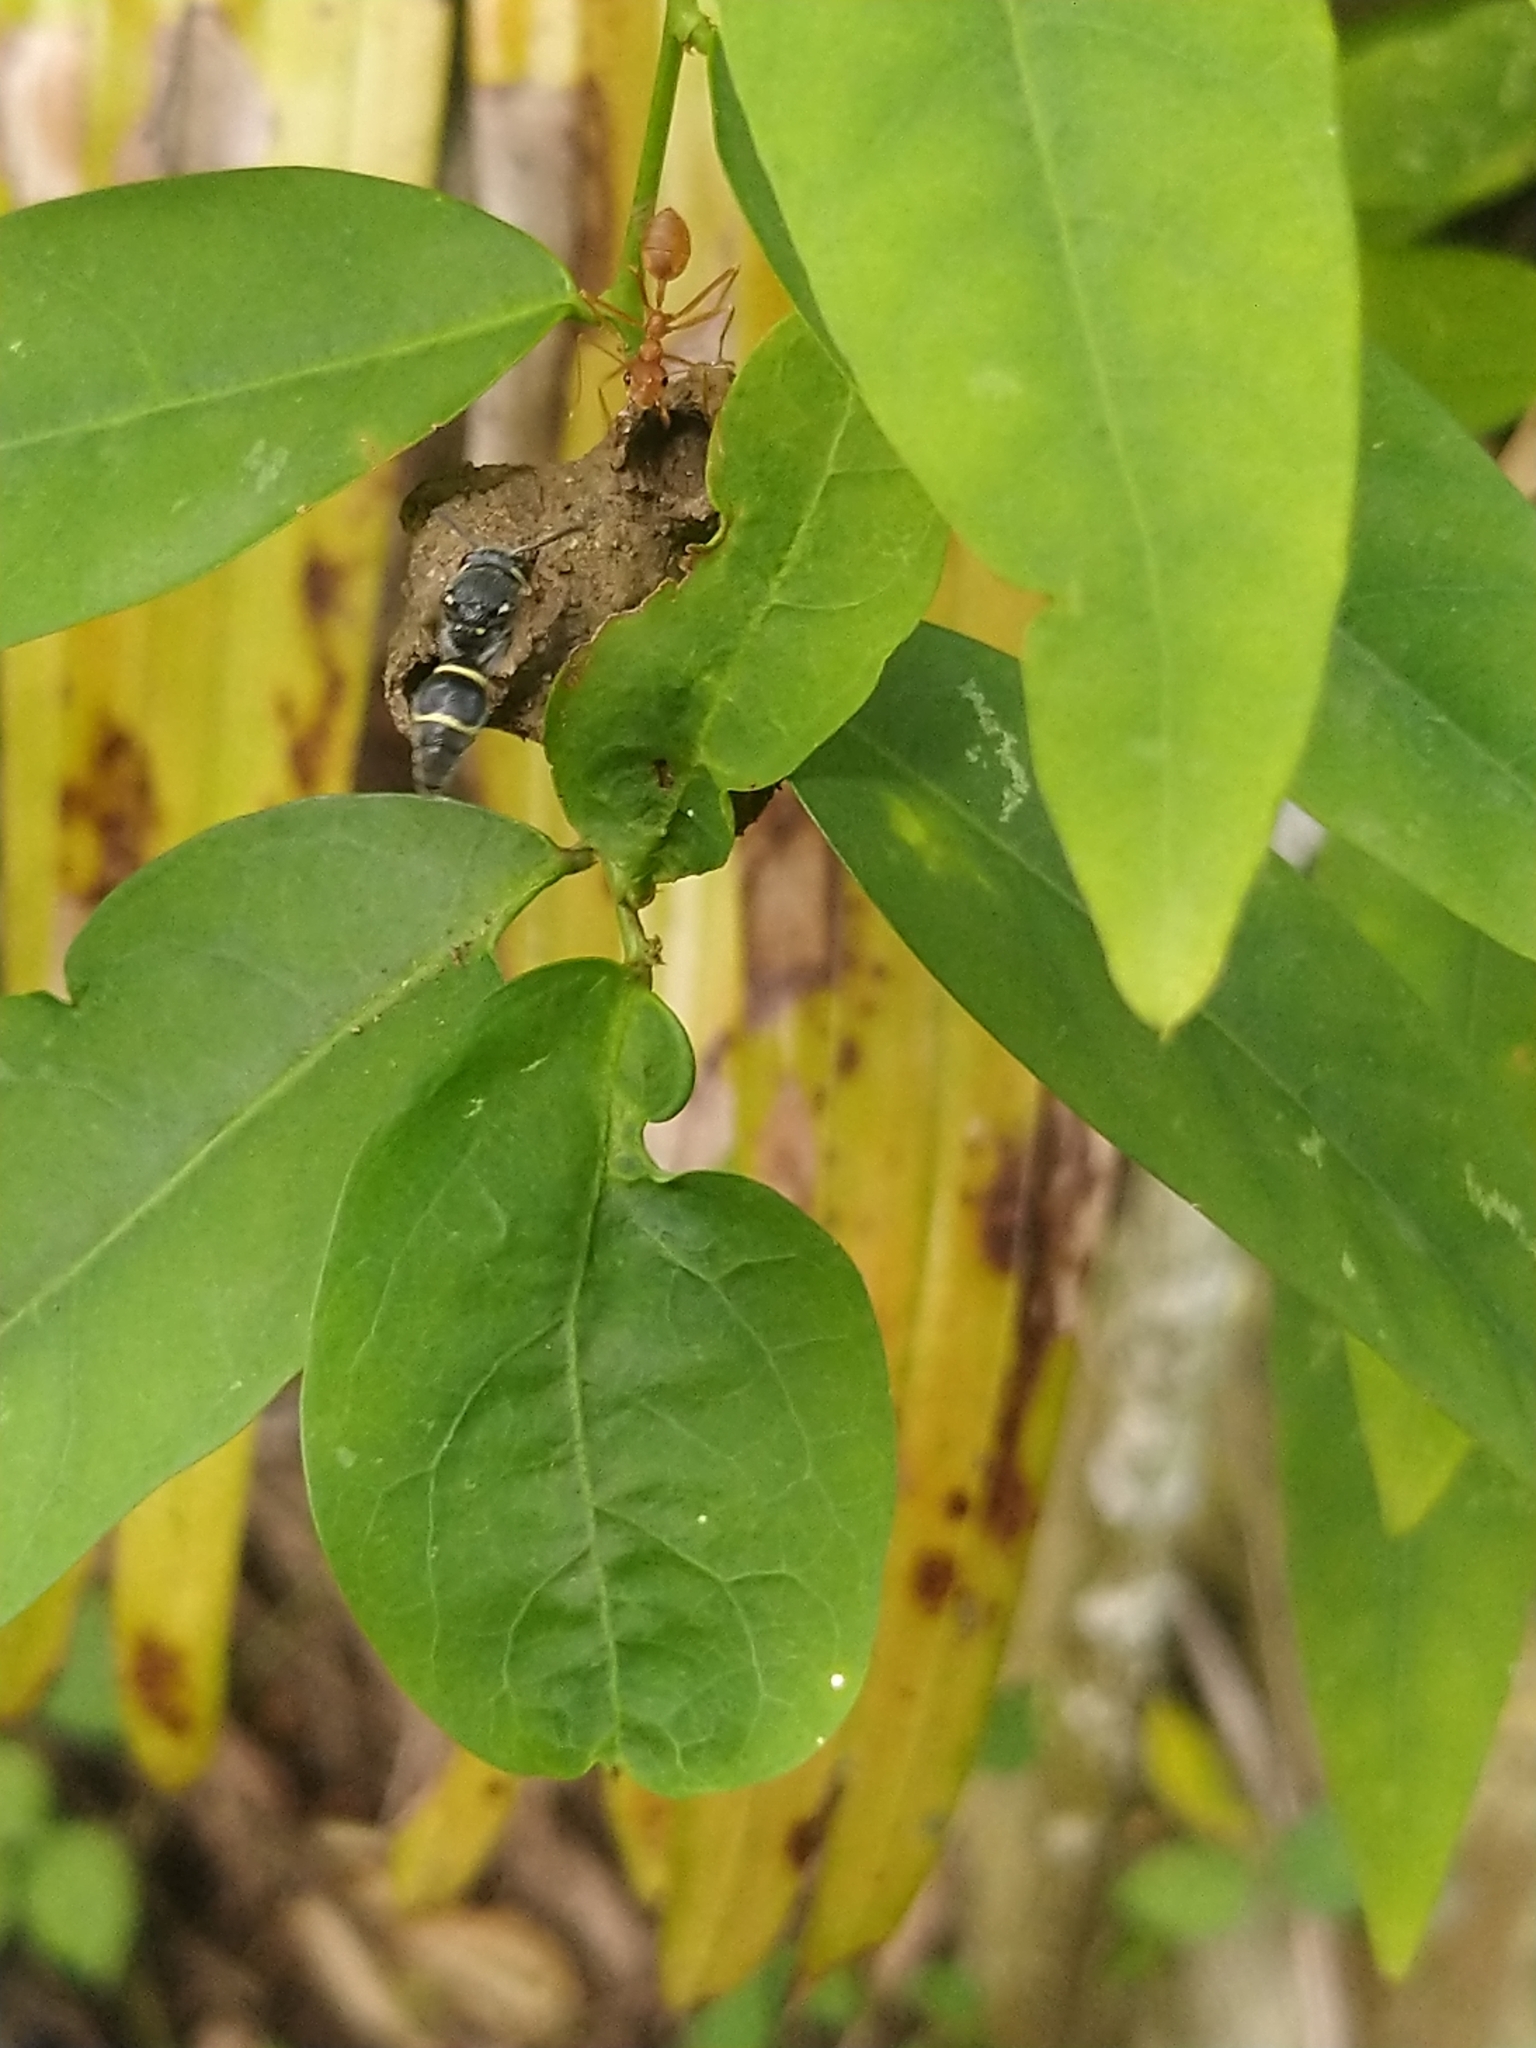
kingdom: Animalia
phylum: Arthropoda
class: Insecta
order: Hymenoptera
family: Eumenidae
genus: Paraleptomenes
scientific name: Paraleptomenes
